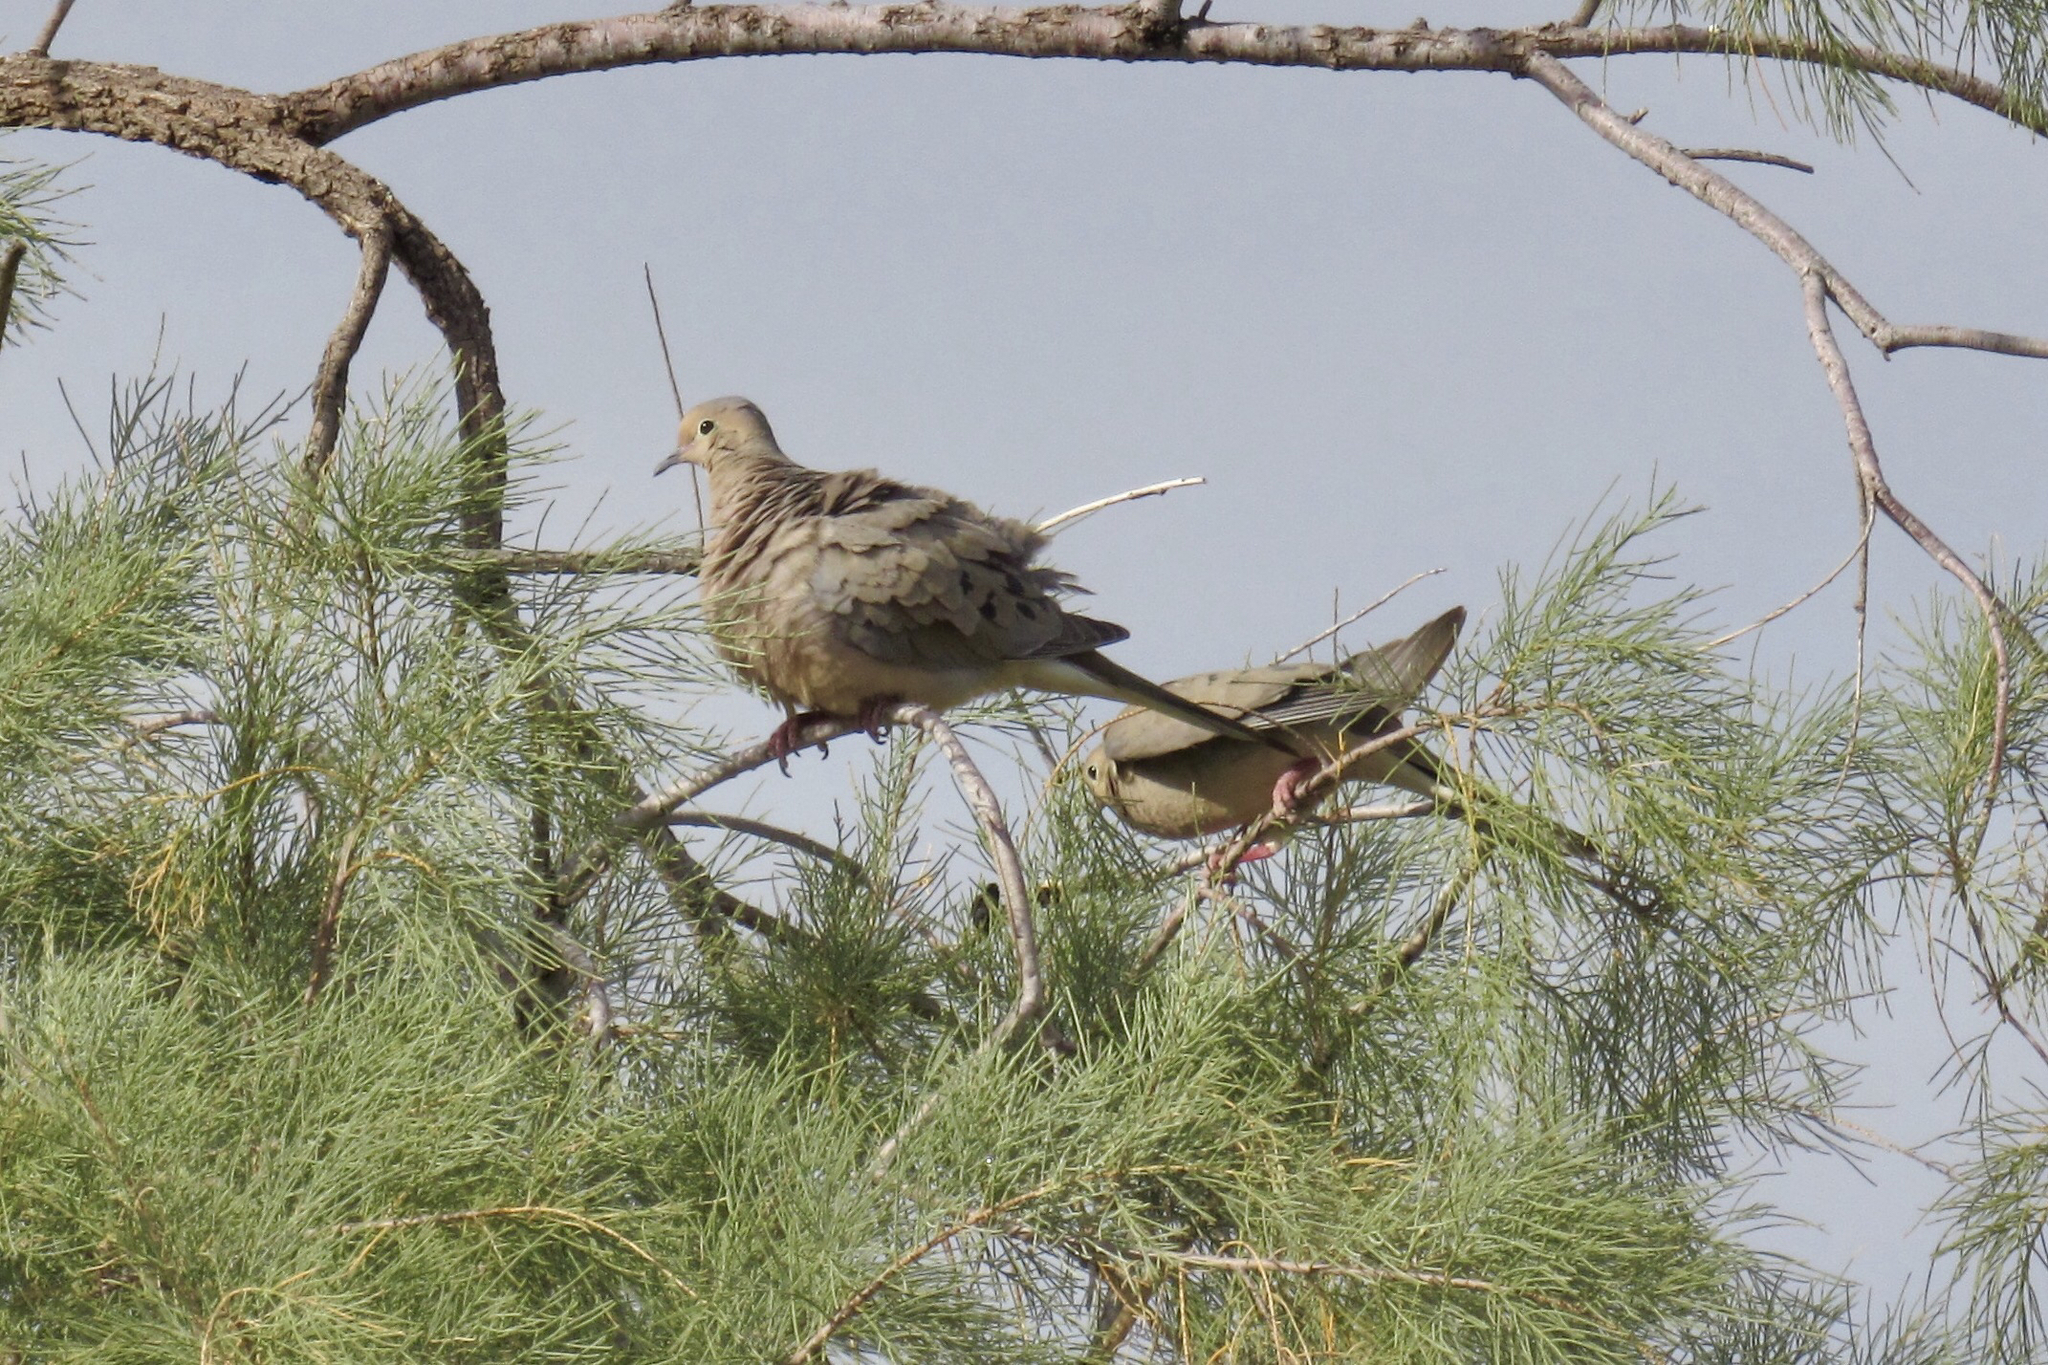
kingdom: Animalia
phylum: Chordata
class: Aves
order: Columbiformes
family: Columbidae
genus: Zenaida
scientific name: Zenaida macroura
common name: Mourning dove
